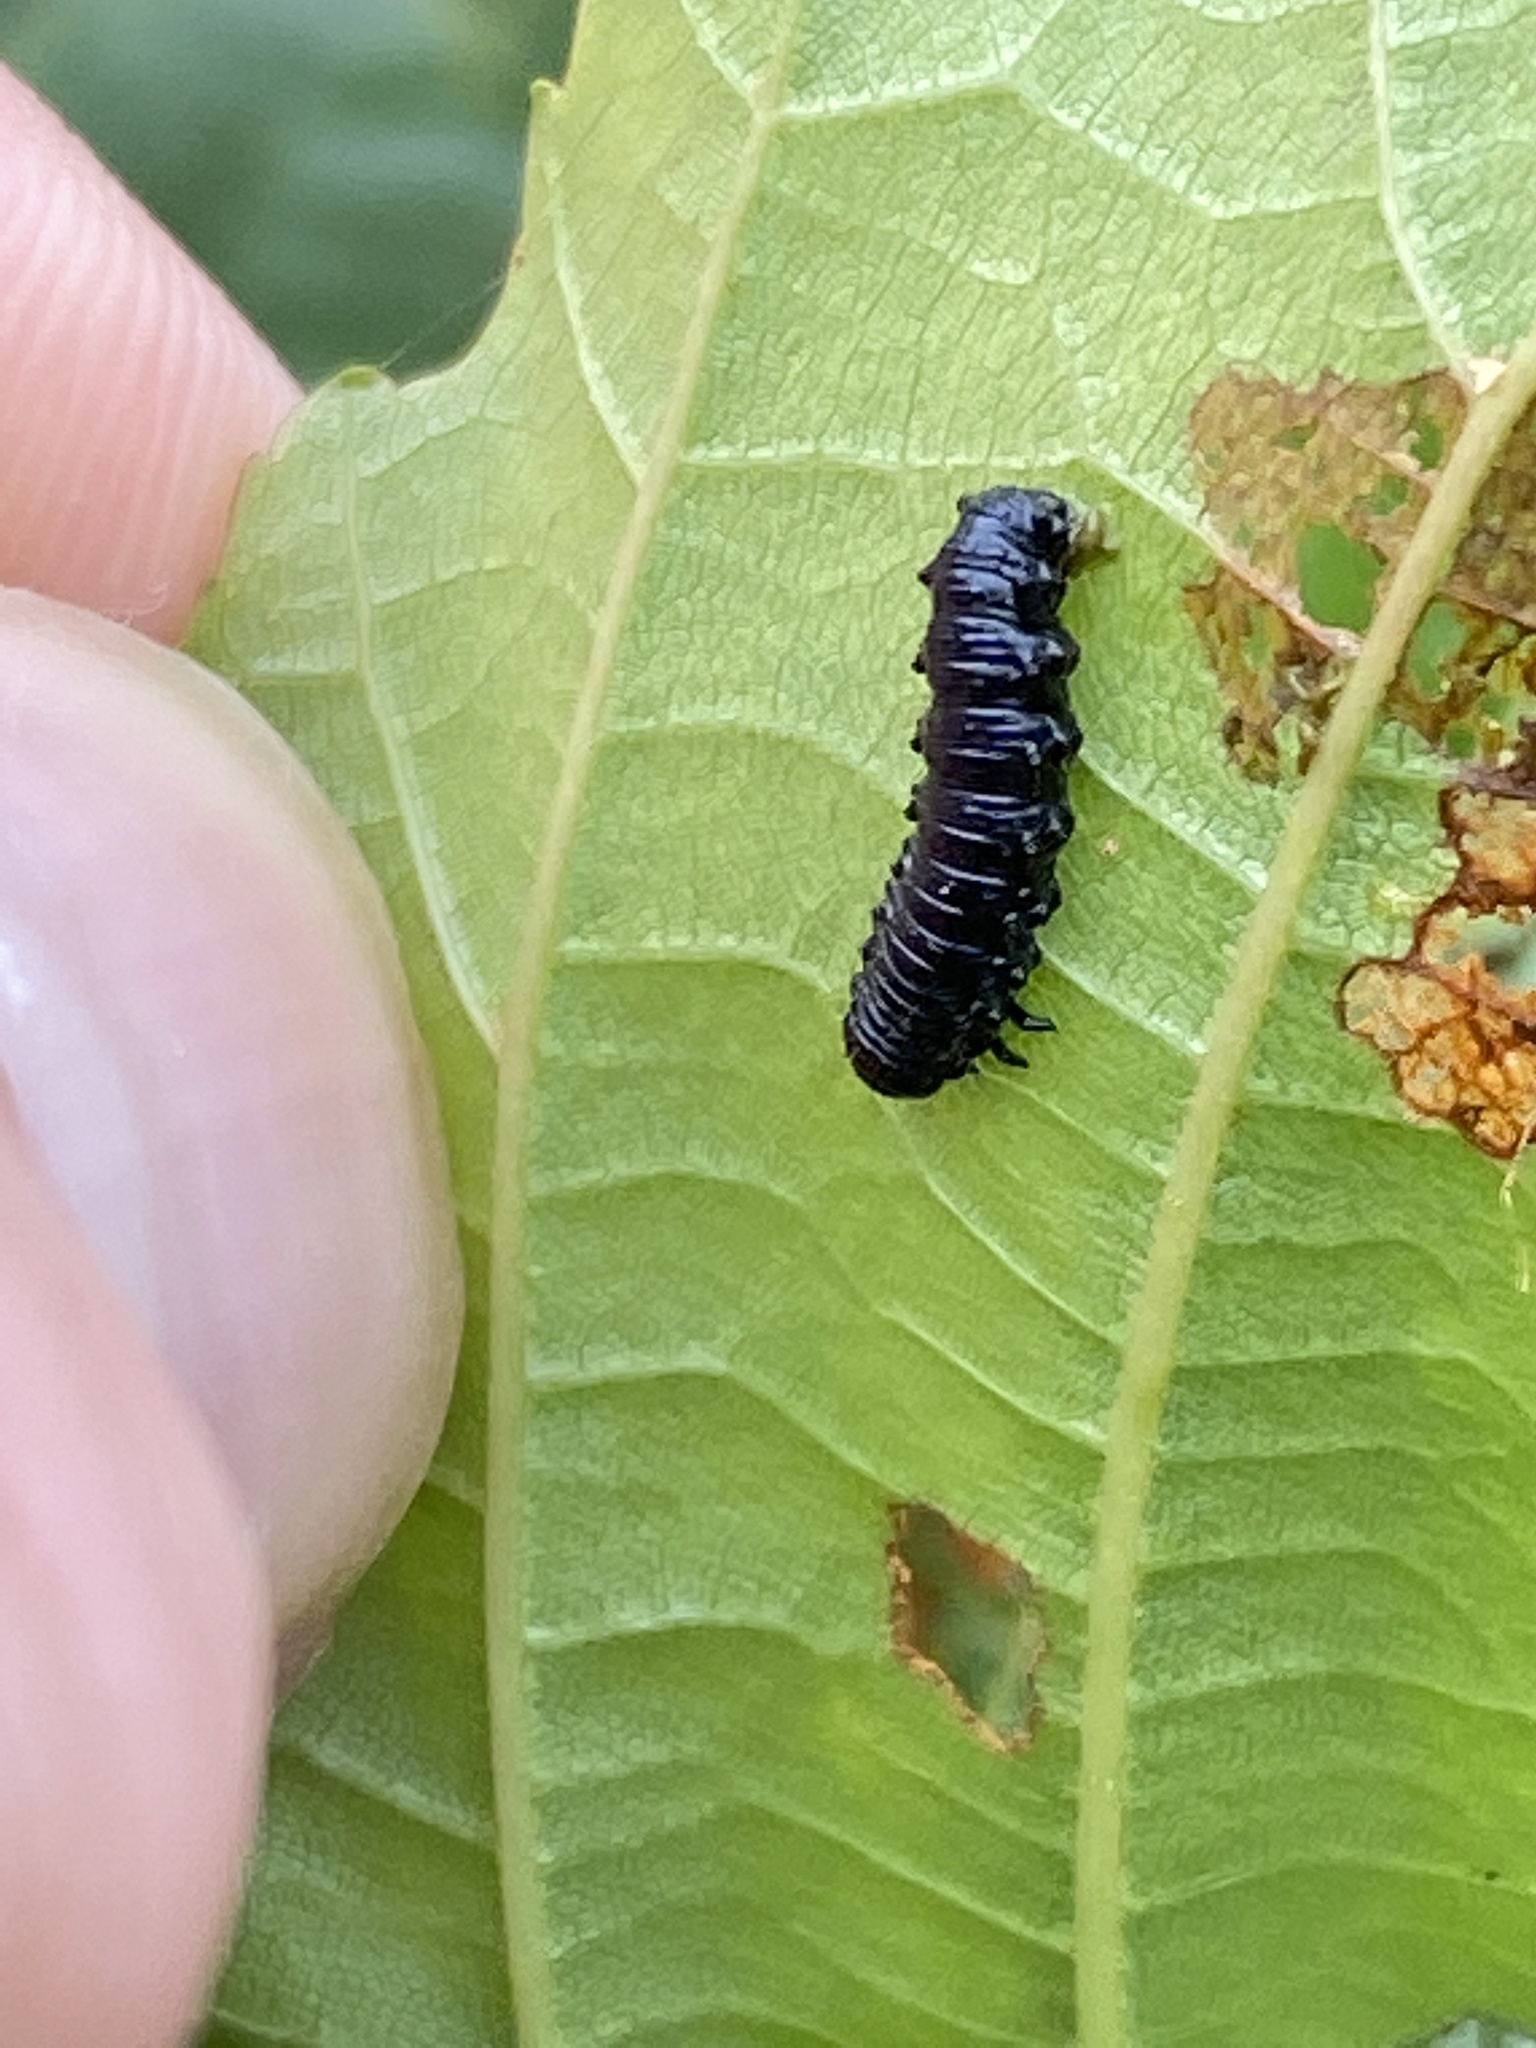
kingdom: Animalia
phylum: Arthropoda
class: Insecta
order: Coleoptera
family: Chrysomelidae
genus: Agelastica
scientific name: Agelastica alni
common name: Alder leaf beetle
